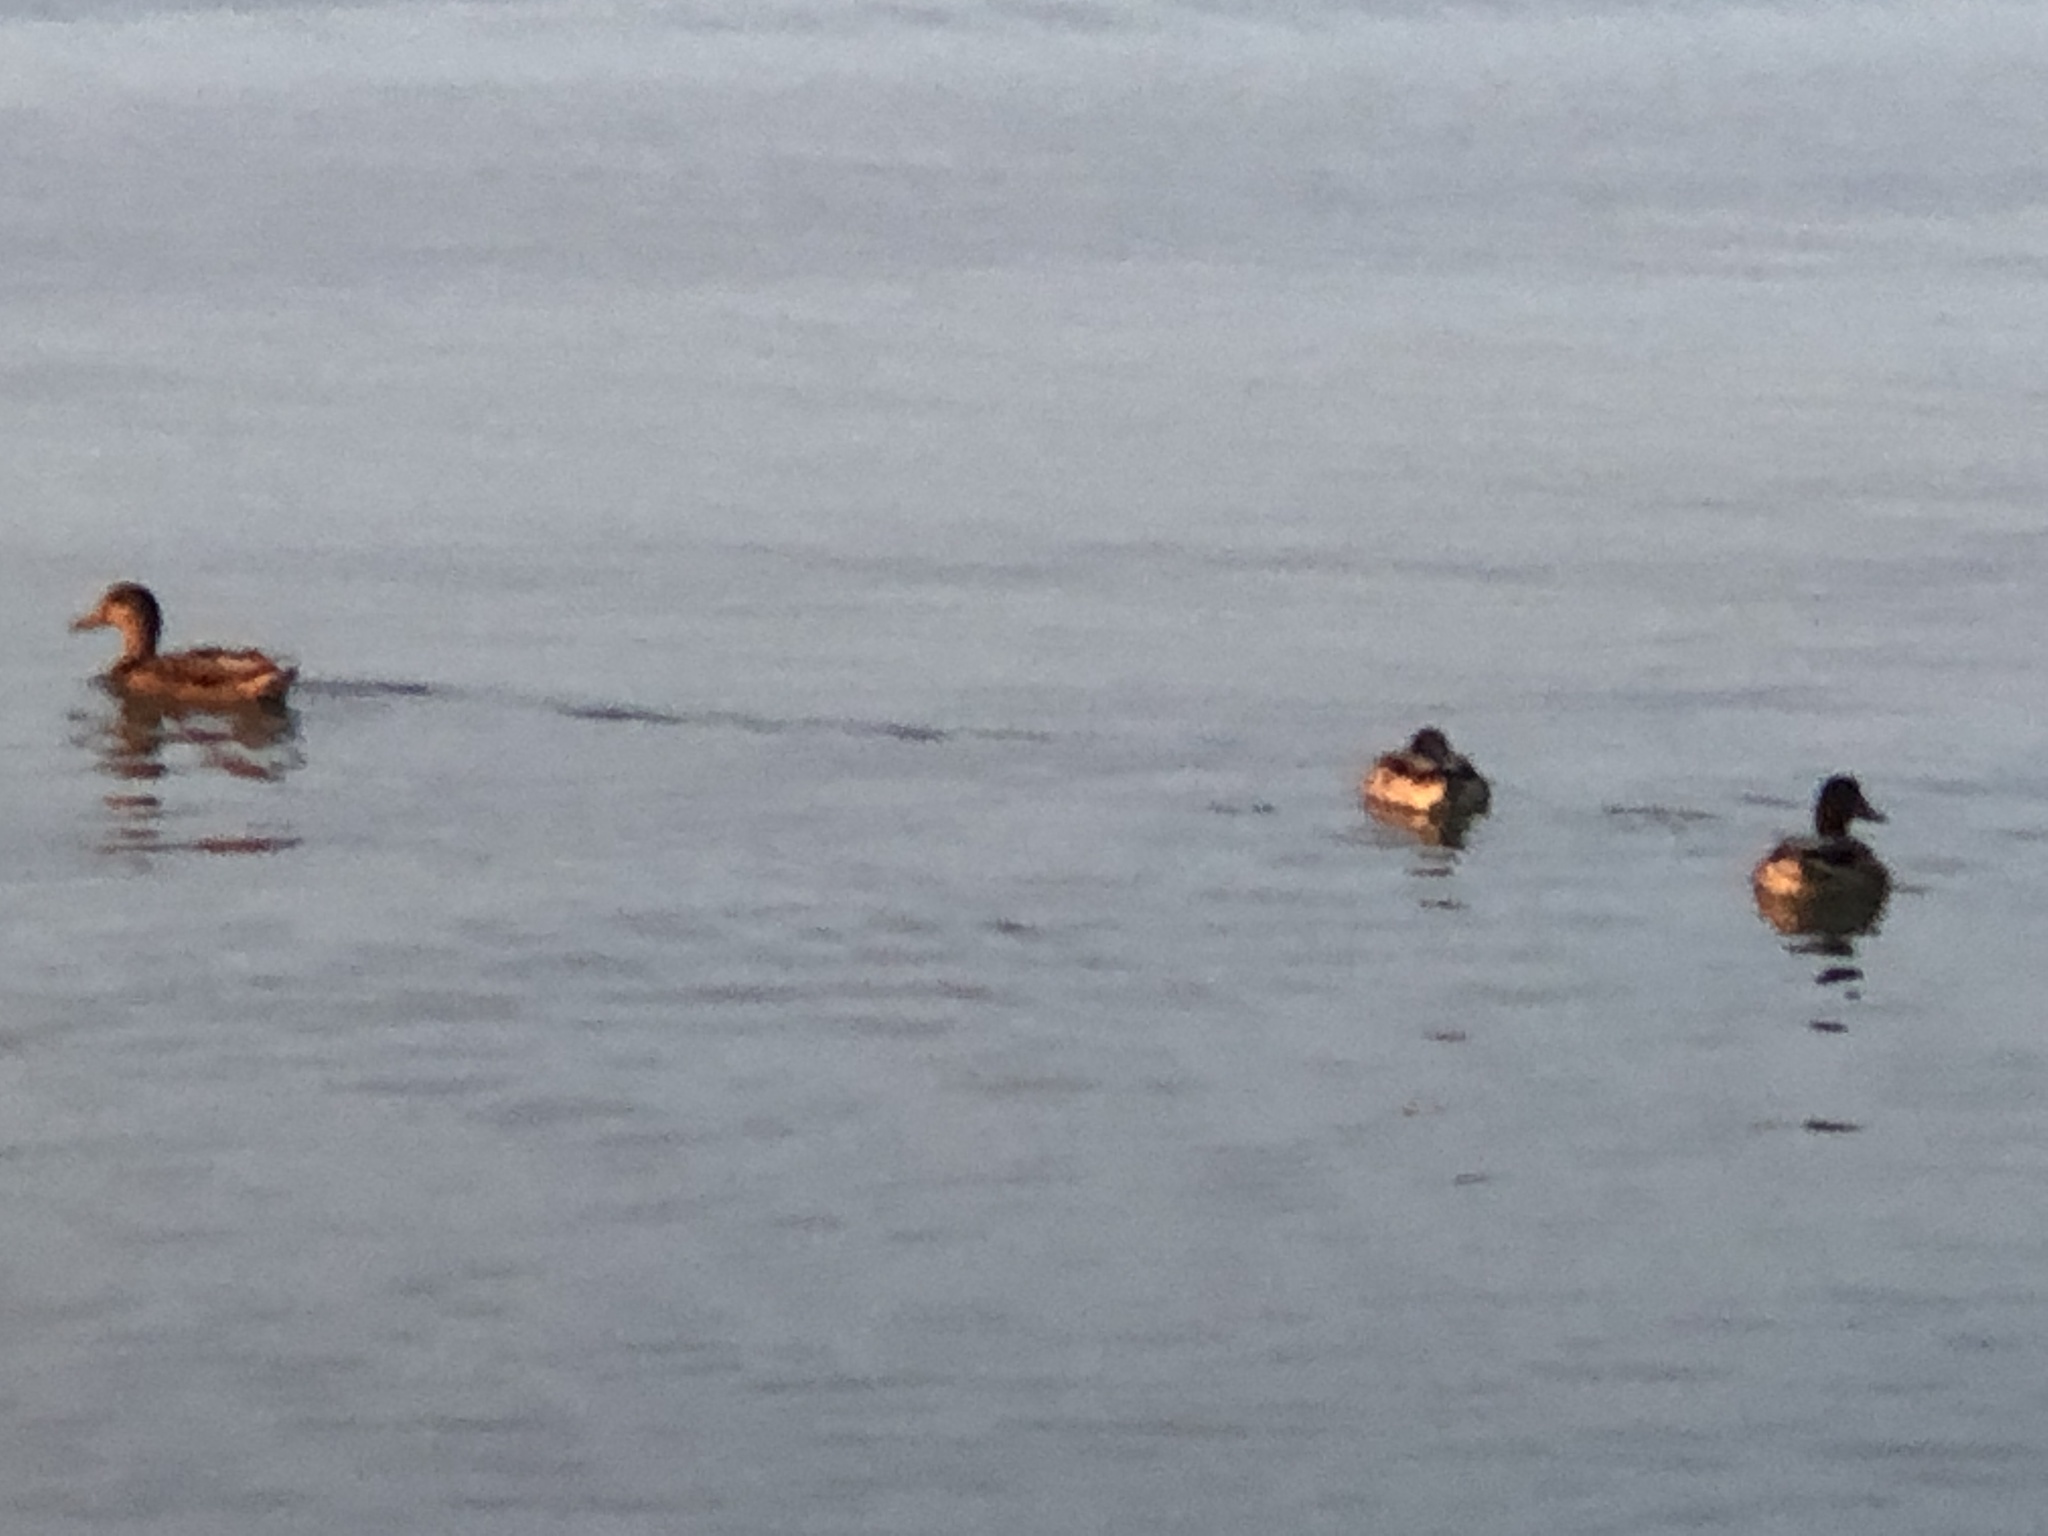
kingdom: Animalia
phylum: Chordata
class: Aves
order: Anseriformes
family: Anatidae
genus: Anas
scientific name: Anas platyrhynchos
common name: Mallard
